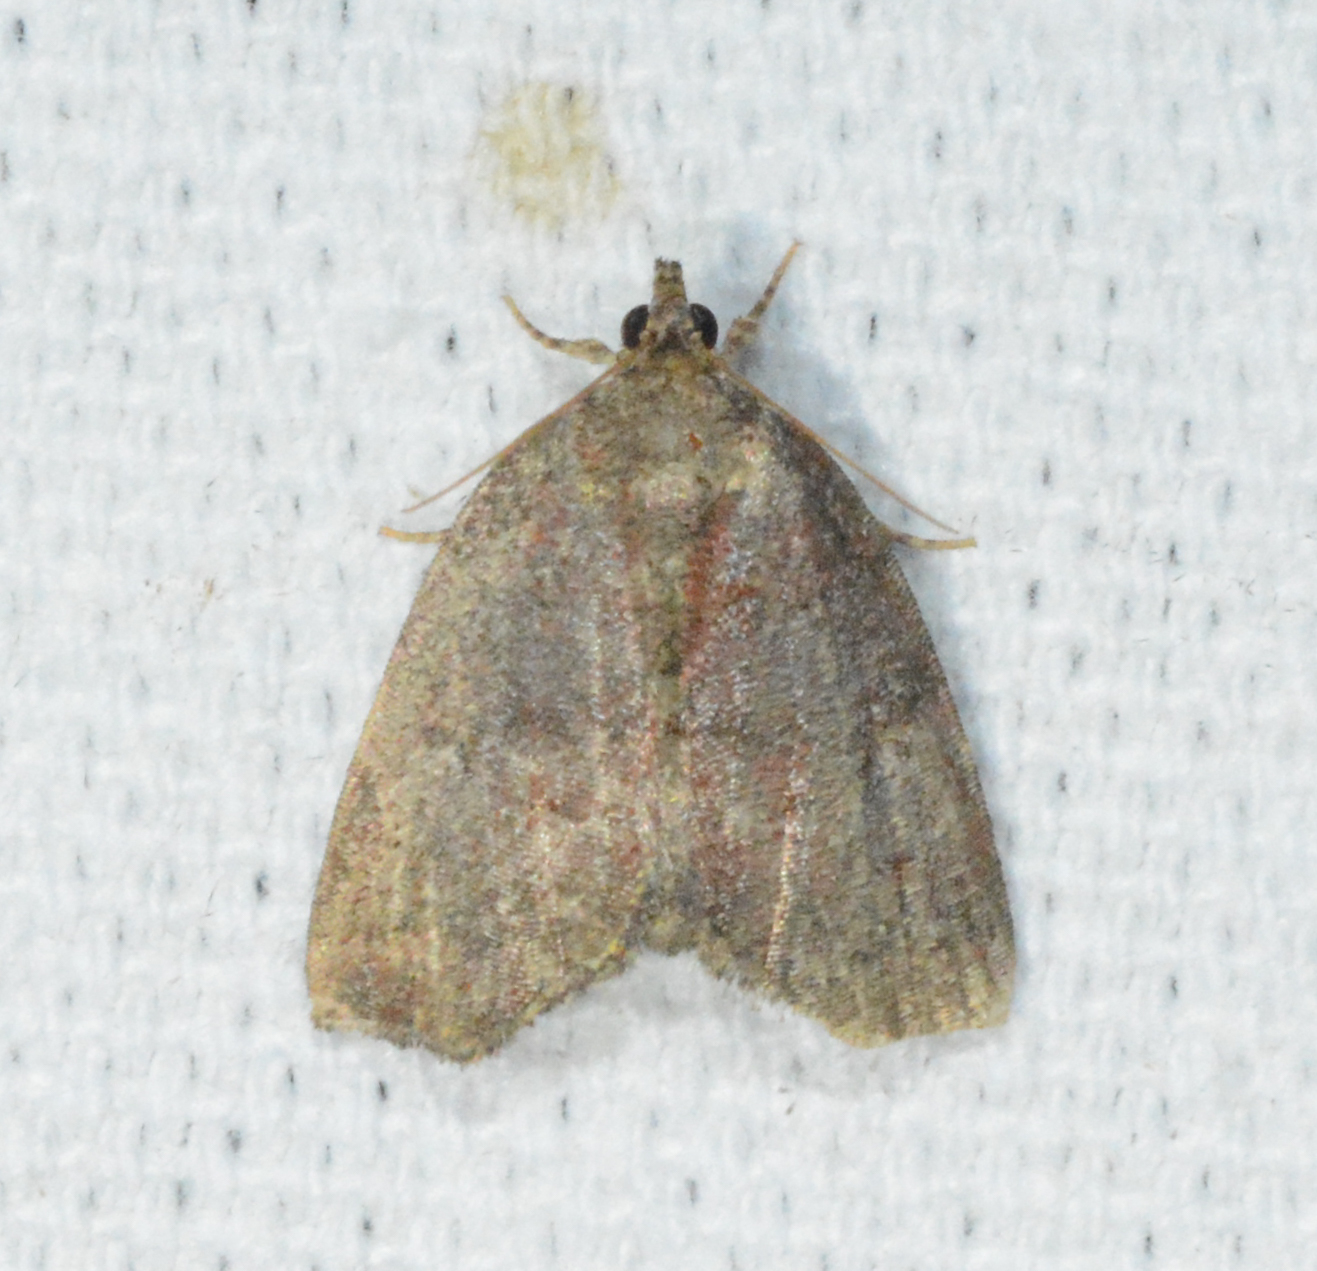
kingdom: Animalia
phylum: Arthropoda
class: Insecta
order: Lepidoptera
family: Erebidae
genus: Cutina
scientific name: Cutina albopunctella
